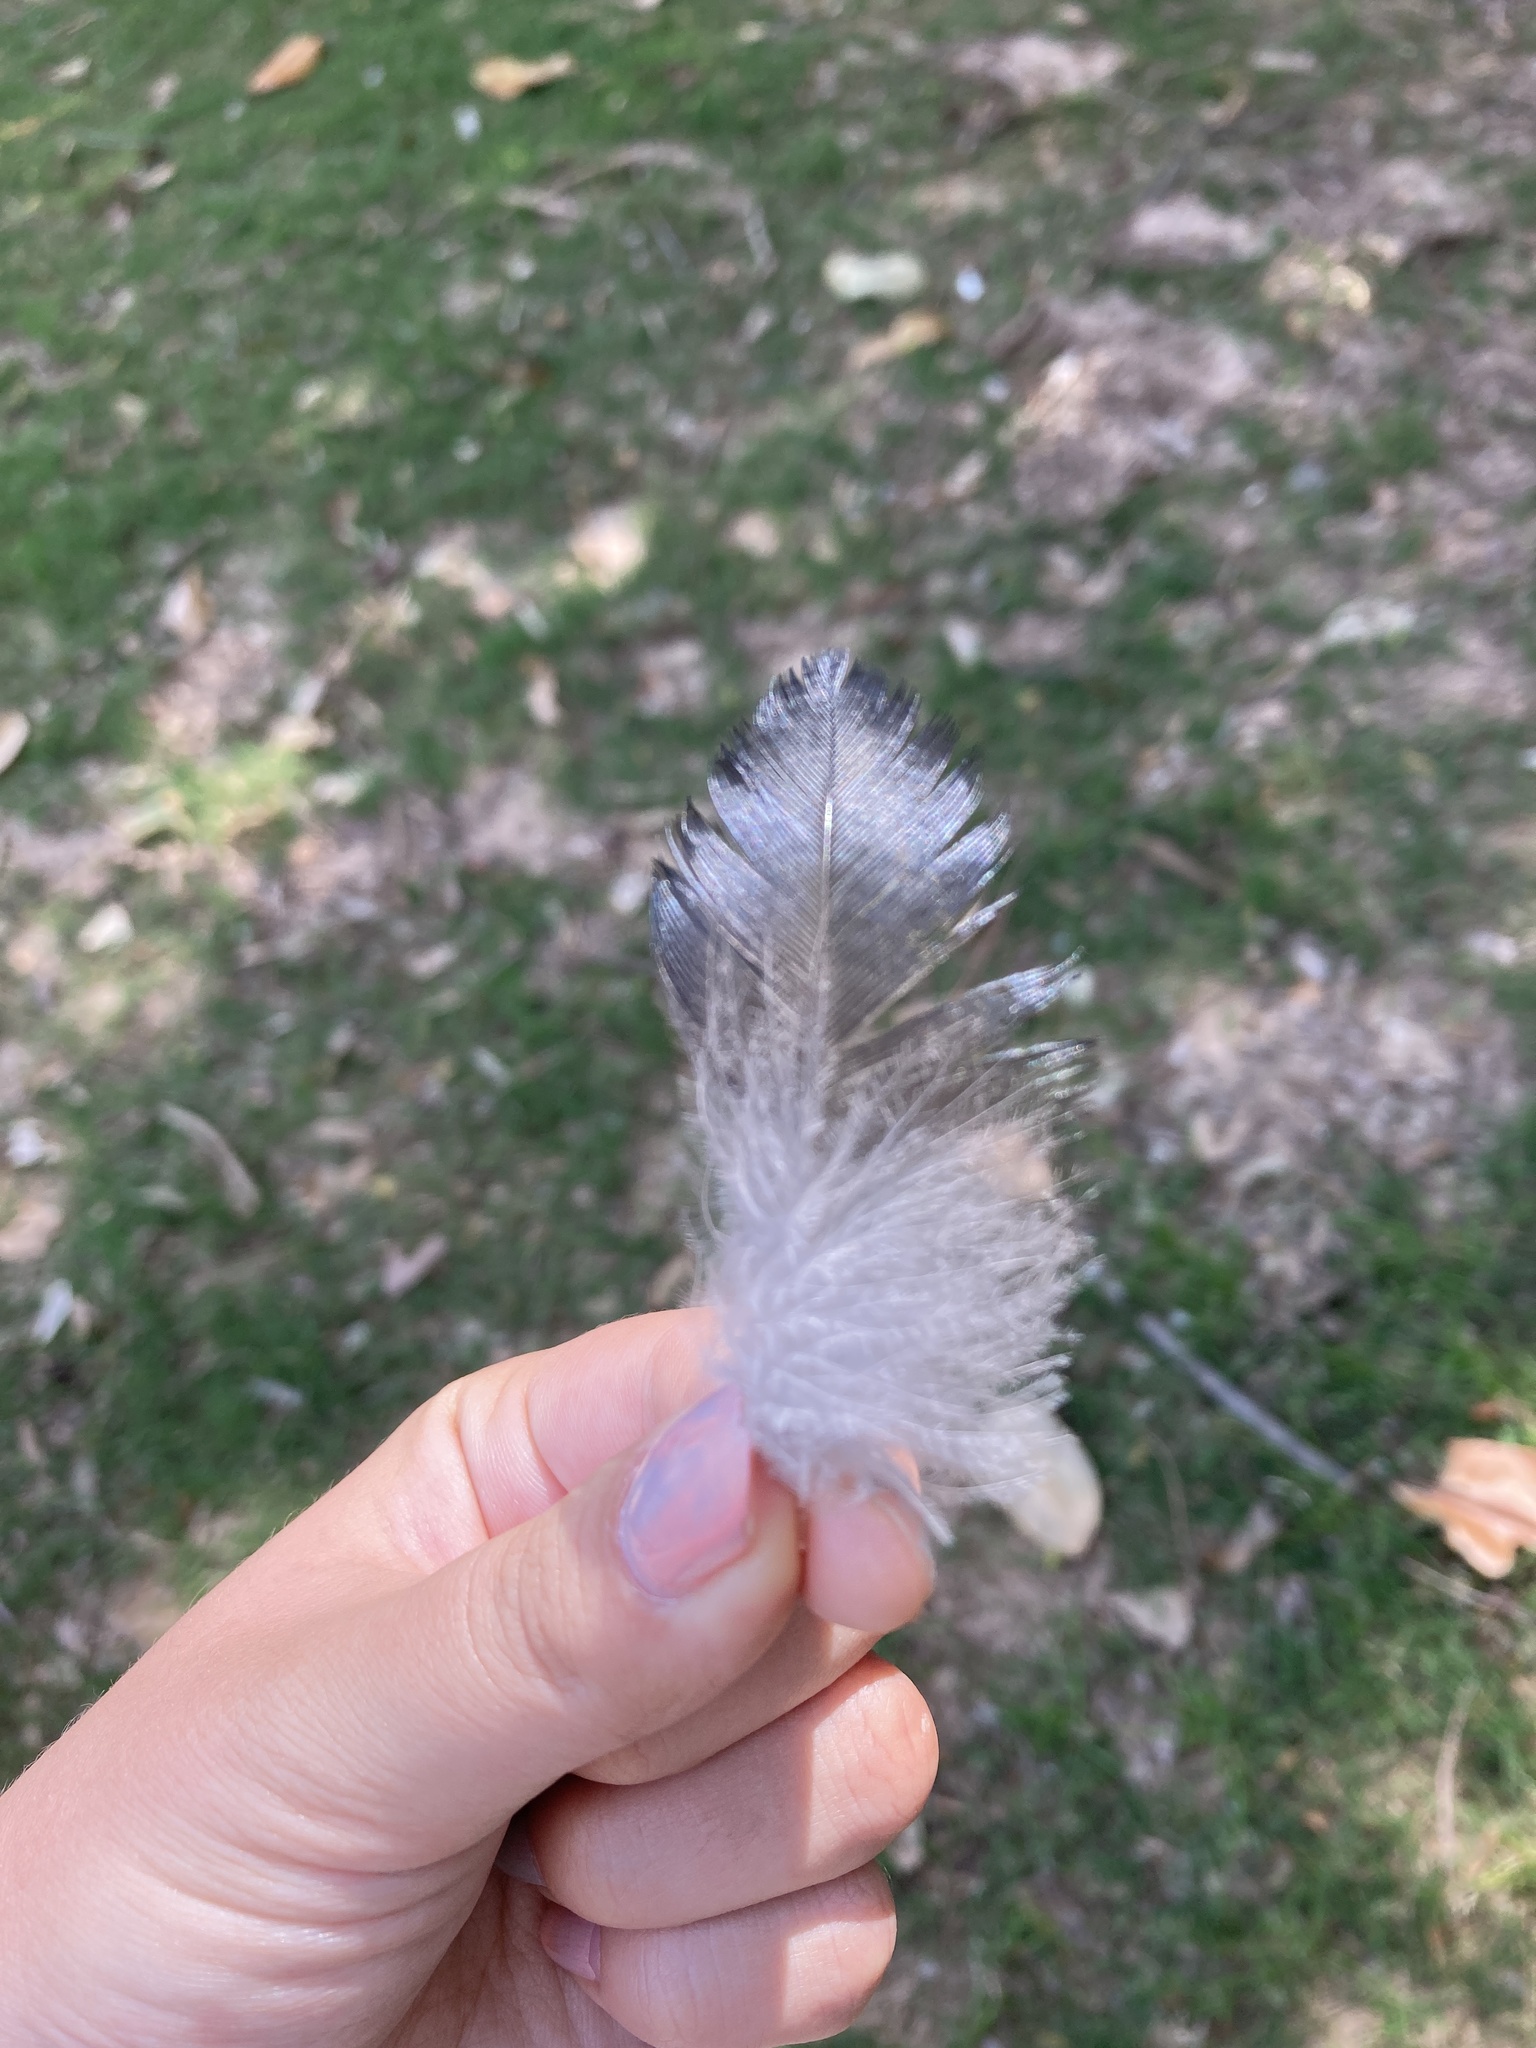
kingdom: Animalia
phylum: Chordata
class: Aves
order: Passeriformes
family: Corvidae
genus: Corvus
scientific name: Corvus
